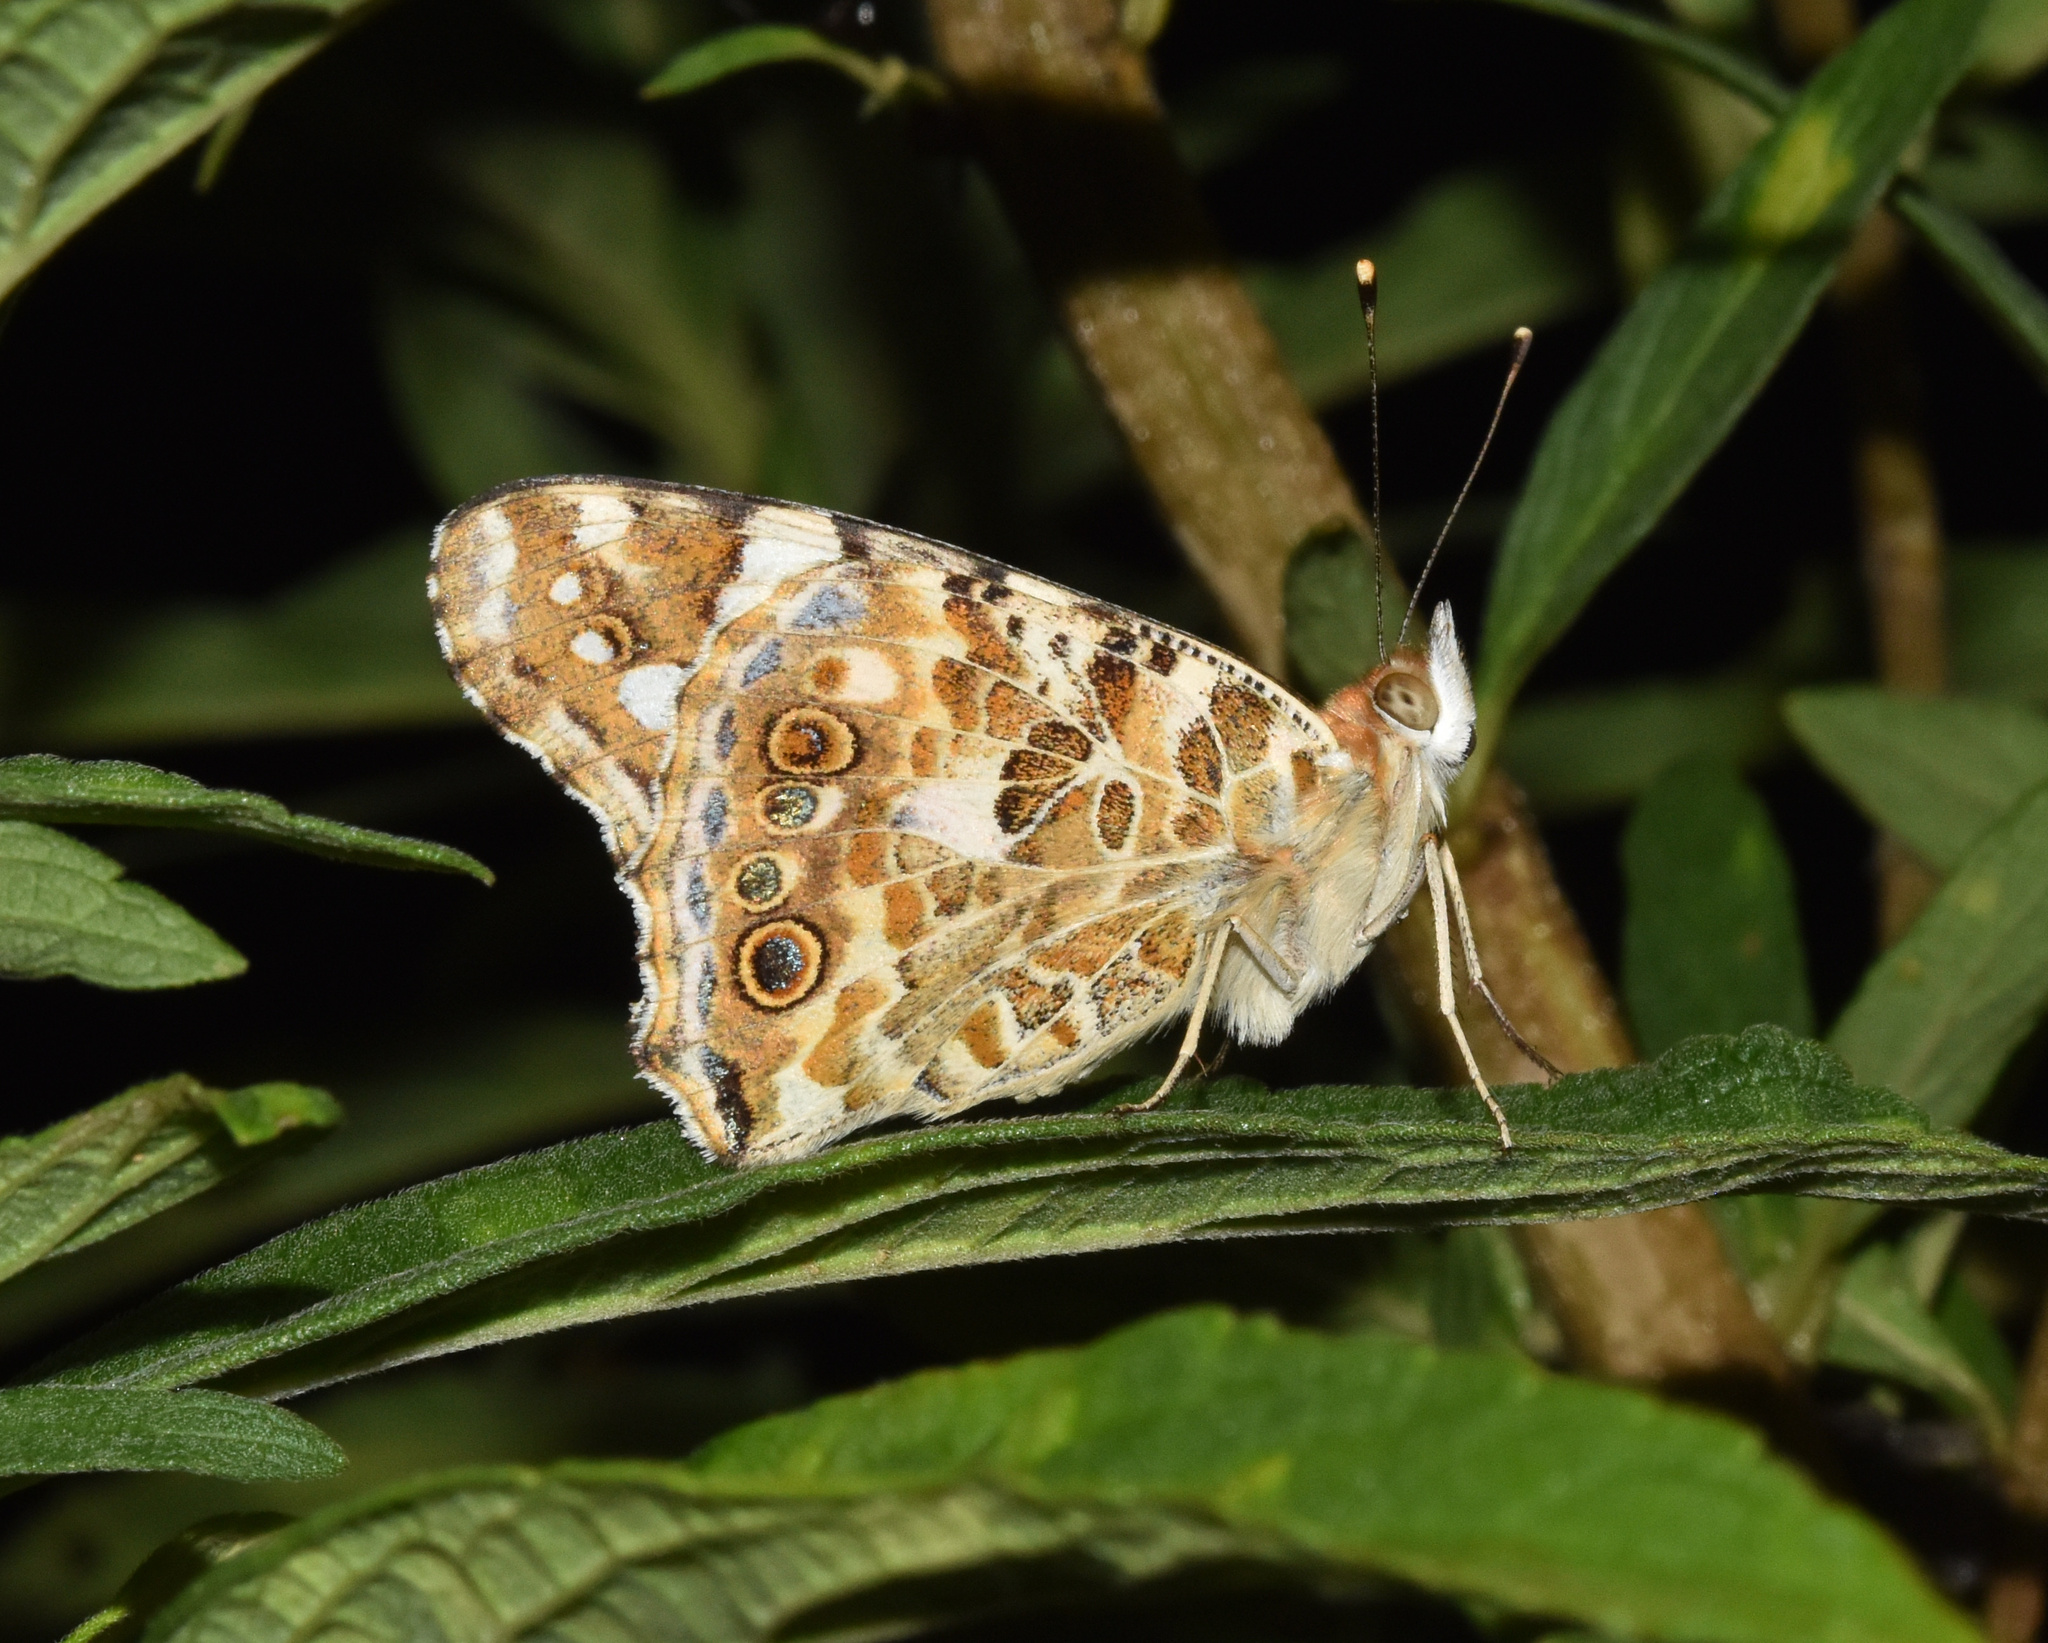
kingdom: Animalia
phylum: Arthropoda
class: Insecta
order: Lepidoptera
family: Nymphalidae
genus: Vanessa
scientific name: Vanessa cardui
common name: Painted lady
